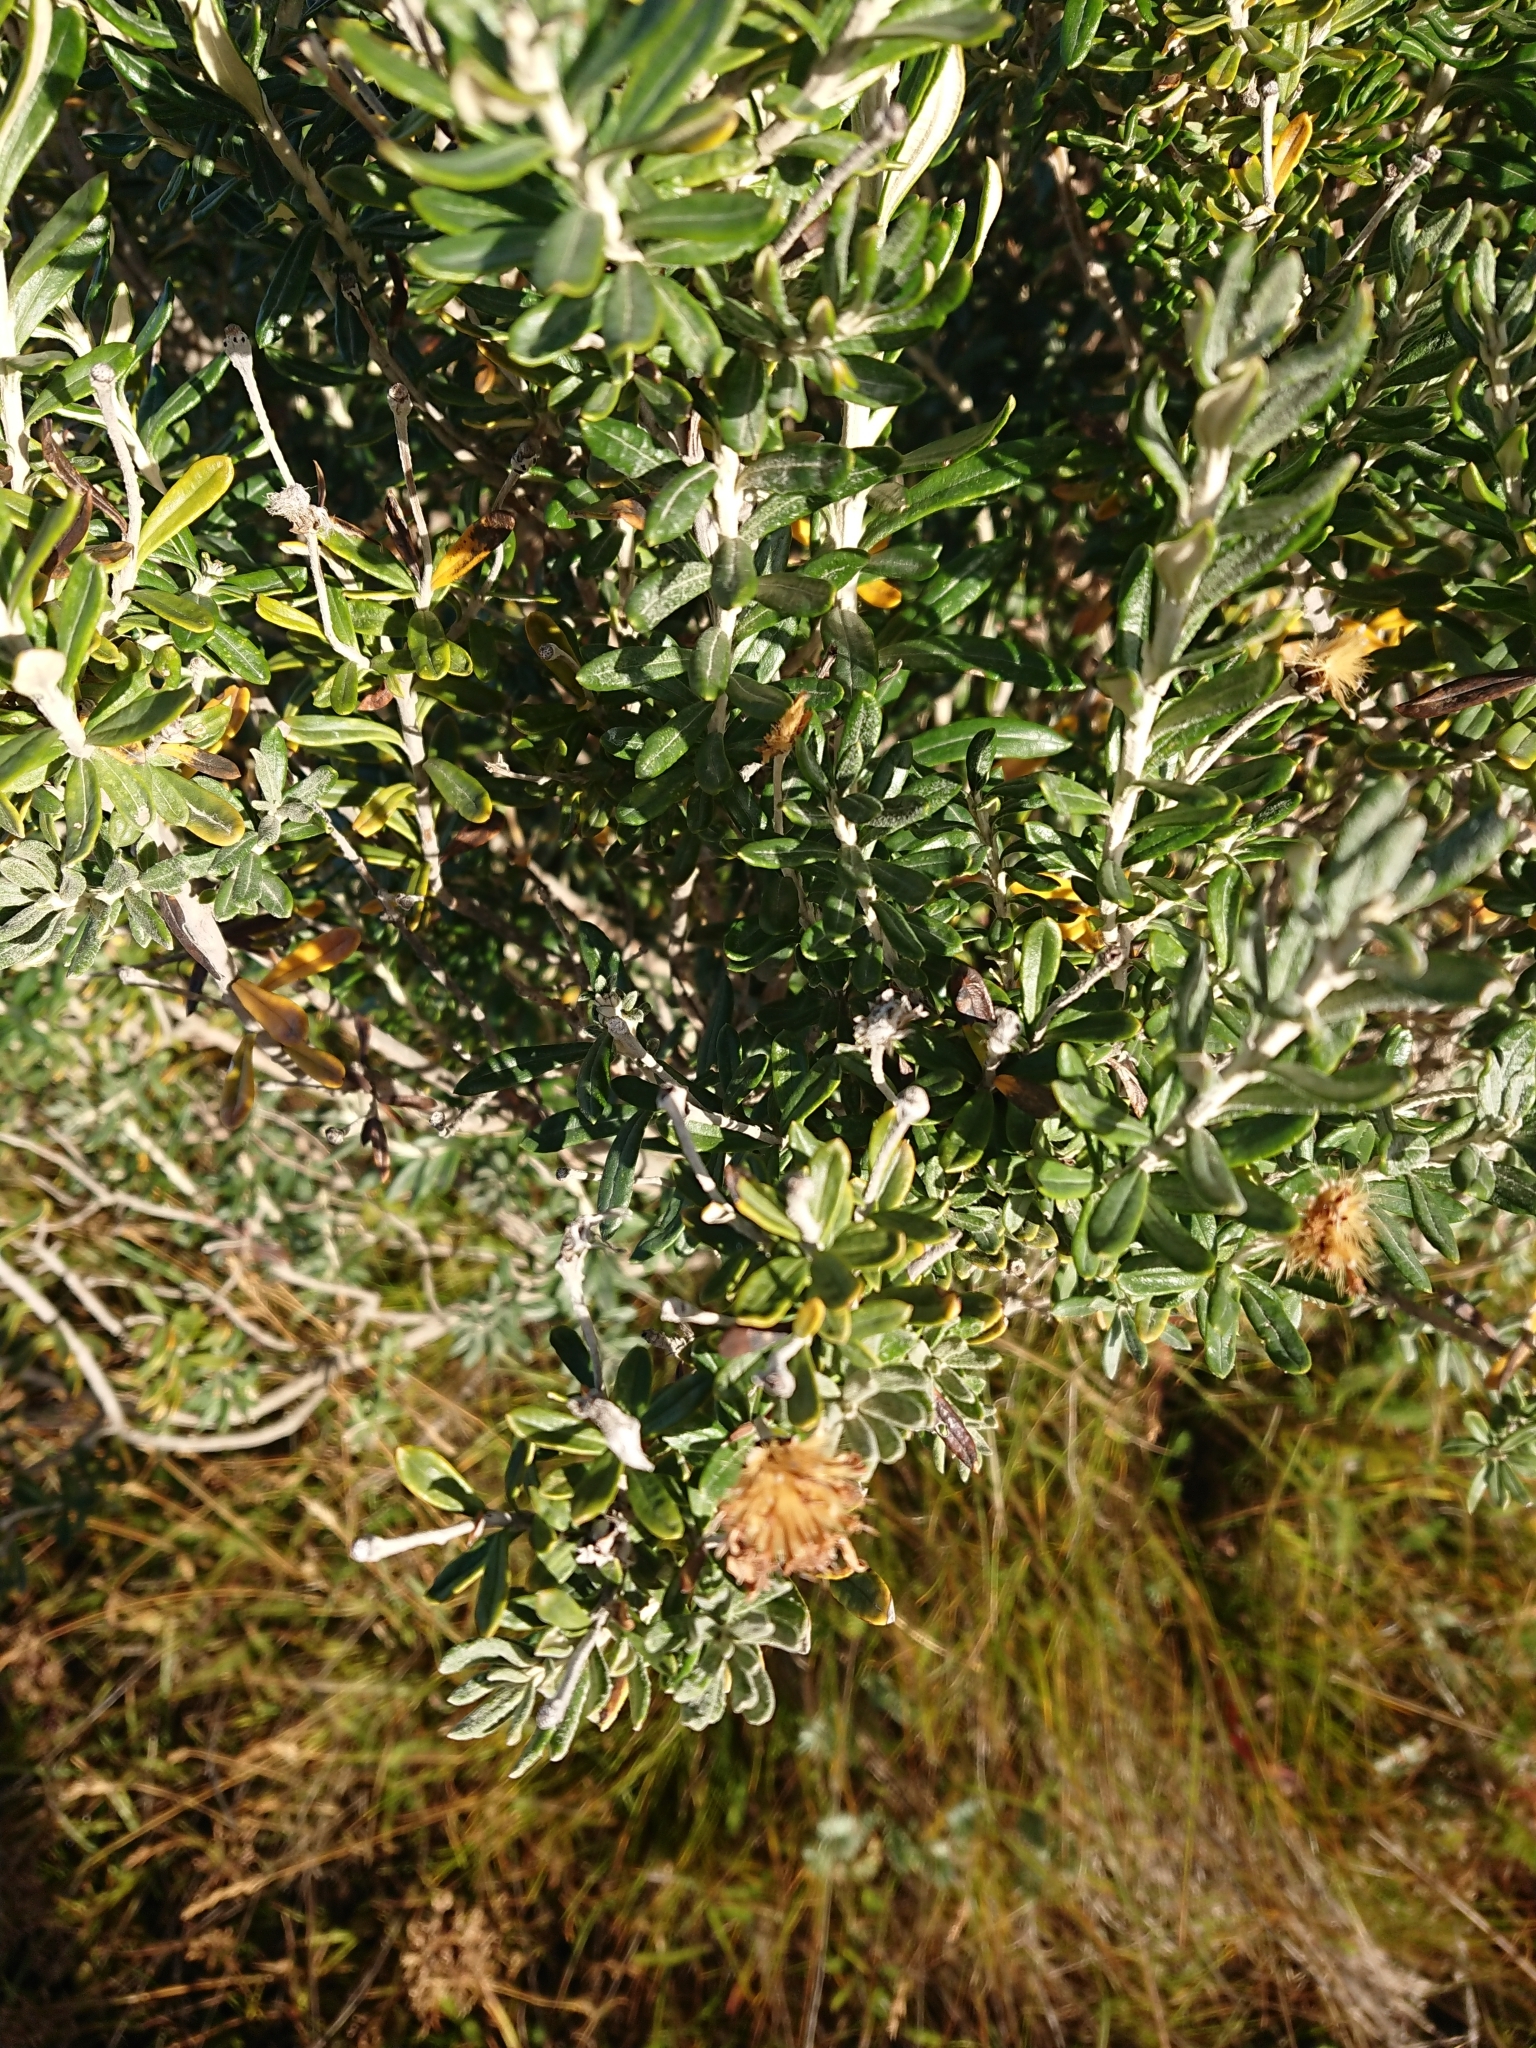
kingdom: Plantae
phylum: Tracheophyta
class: Magnoliopsida
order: Asterales
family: Asteraceae
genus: Chiliotrichum
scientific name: Chiliotrichum diffusum
